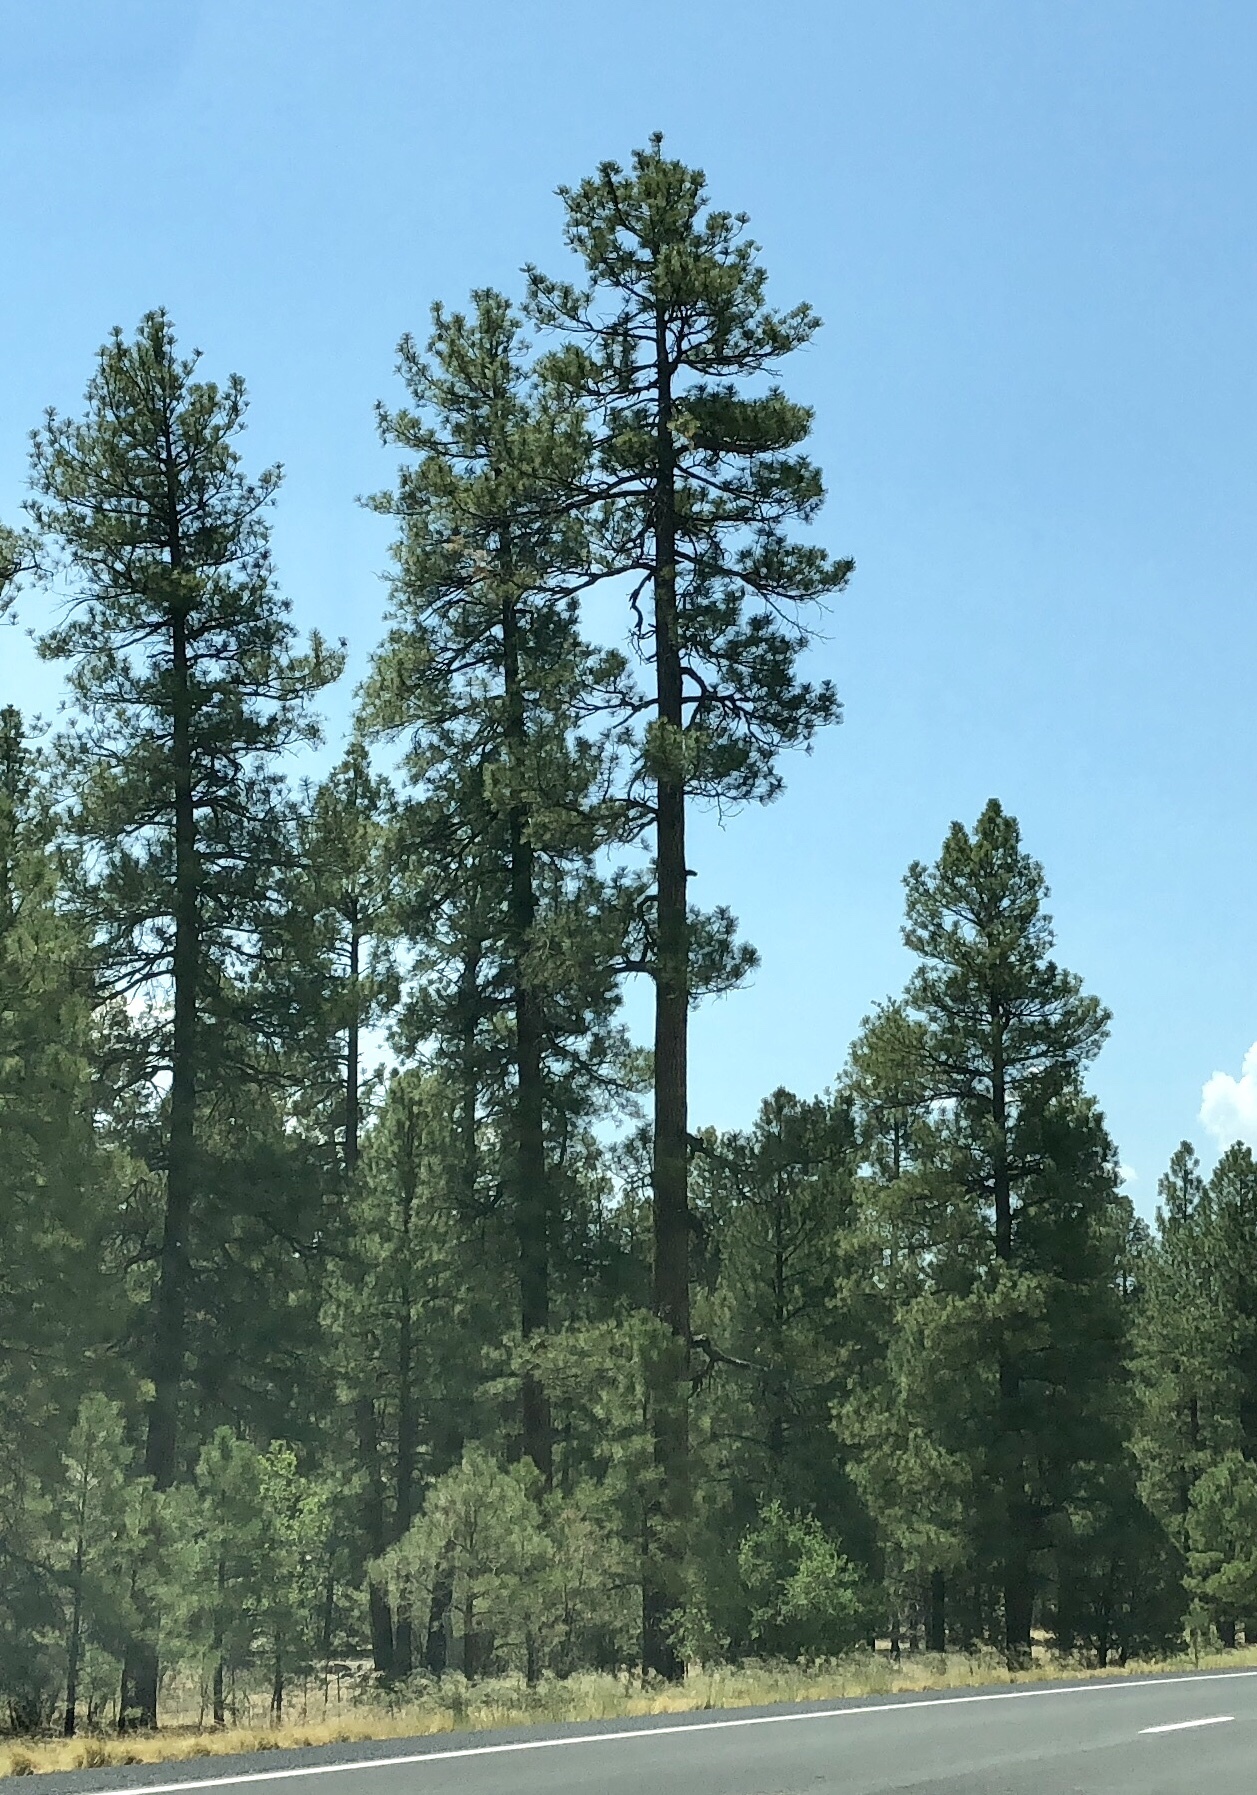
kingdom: Plantae
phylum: Tracheophyta
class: Pinopsida
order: Pinales
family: Pinaceae
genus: Pinus
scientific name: Pinus ponderosa
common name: Western yellow-pine
